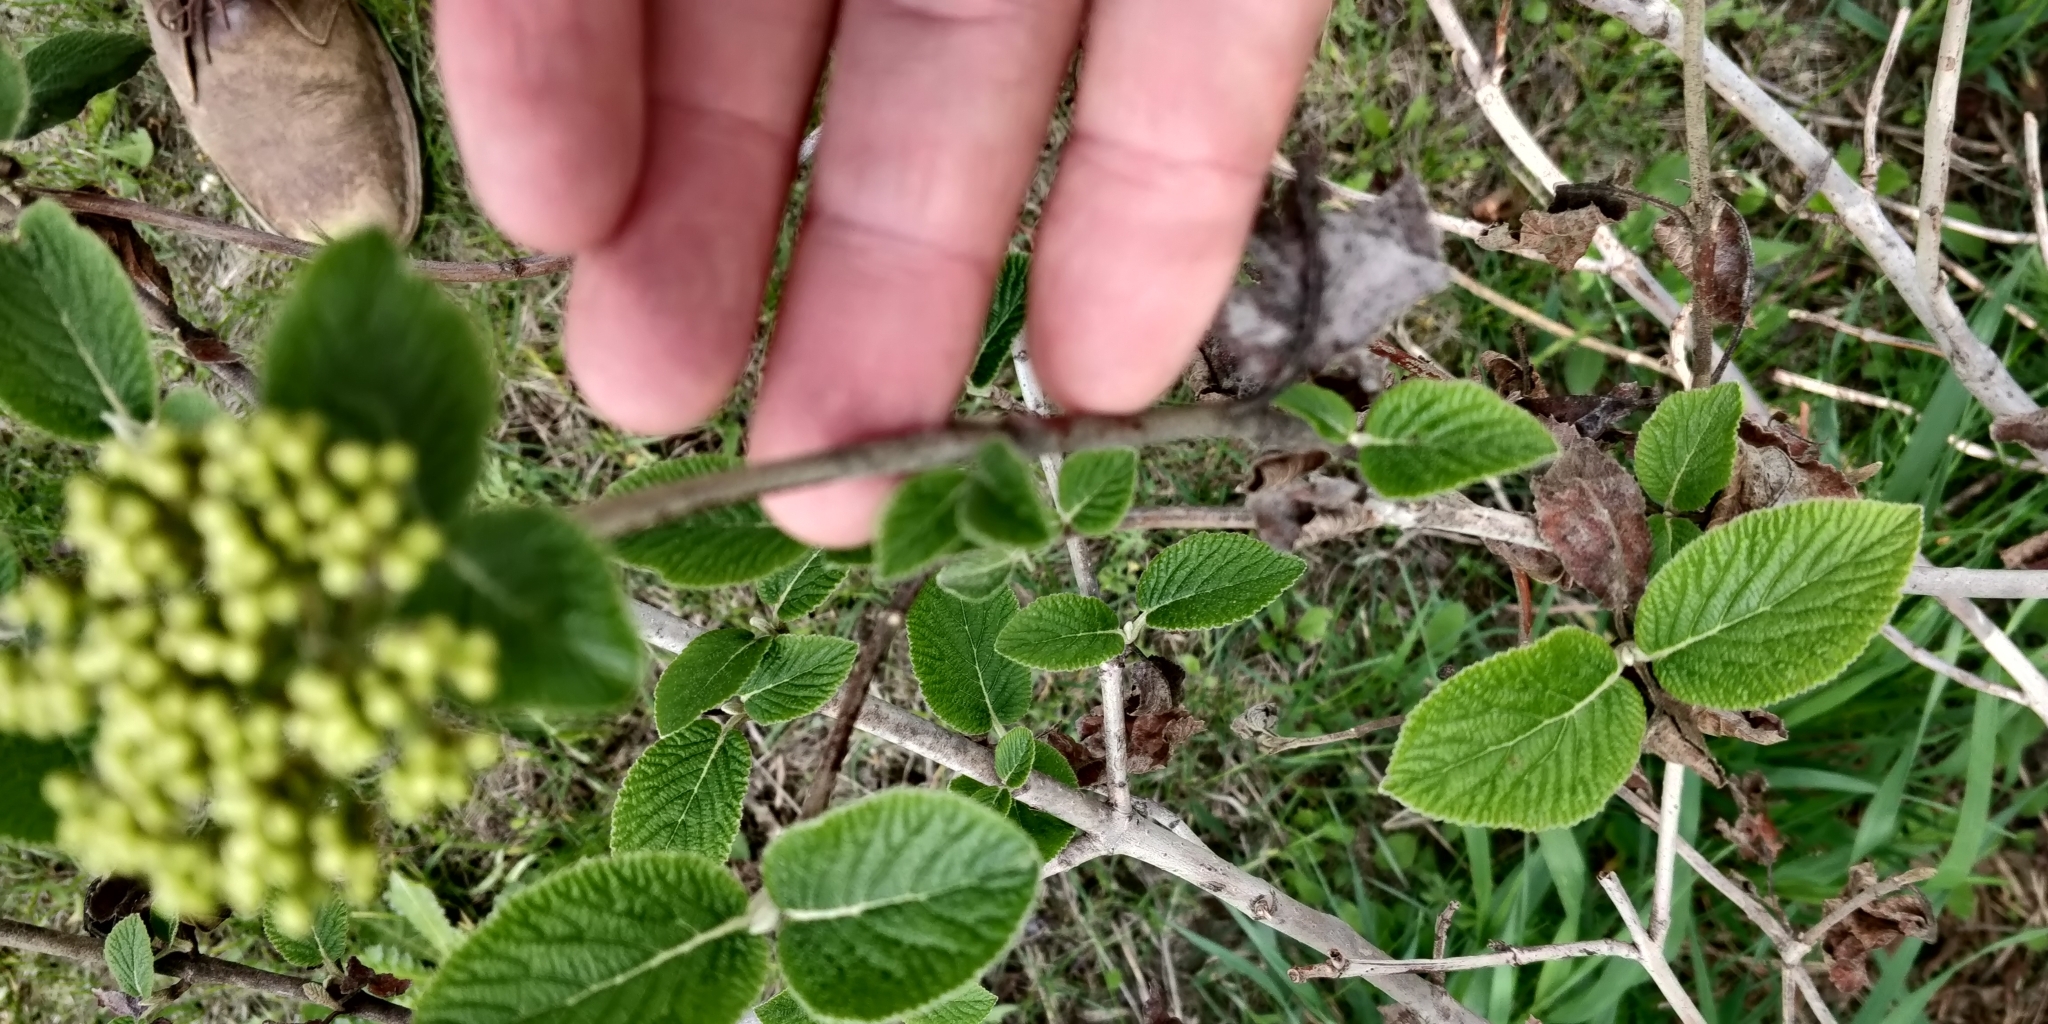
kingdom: Plantae
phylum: Tracheophyta
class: Magnoliopsida
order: Dipsacales
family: Viburnaceae
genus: Viburnum
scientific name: Viburnum lantana
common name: Wayfaring tree
